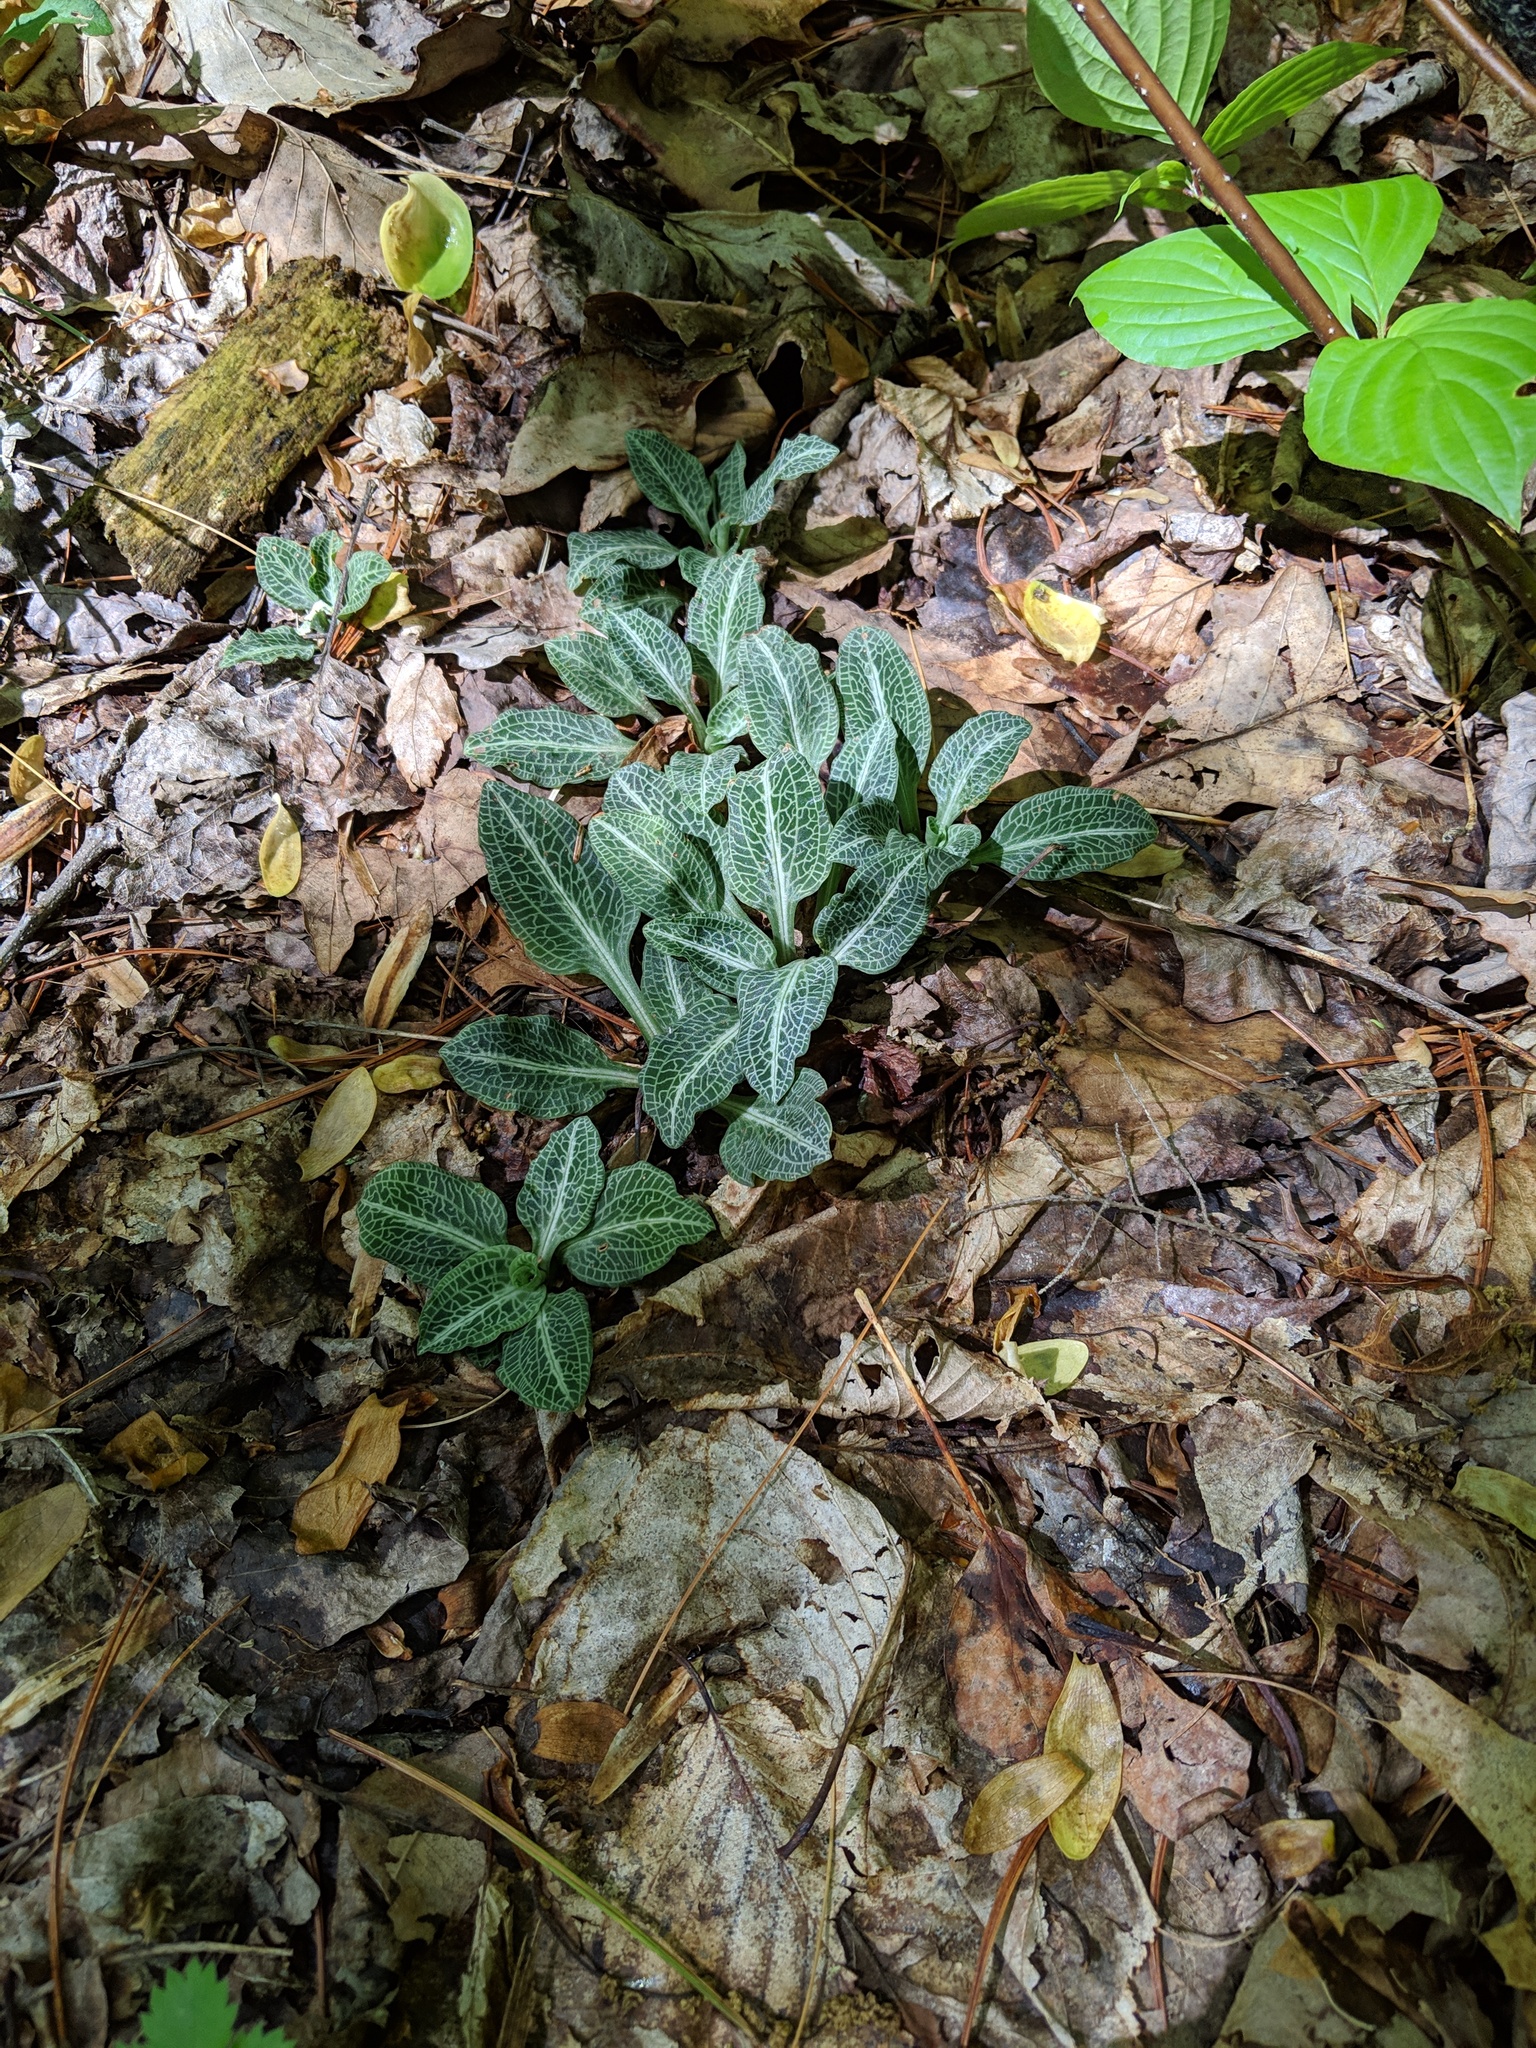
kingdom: Plantae
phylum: Tracheophyta
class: Liliopsida
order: Asparagales
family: Orchidaceae
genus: Goodyera
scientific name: Goodyera pubescens
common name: Downy rattlesnake-plantain
